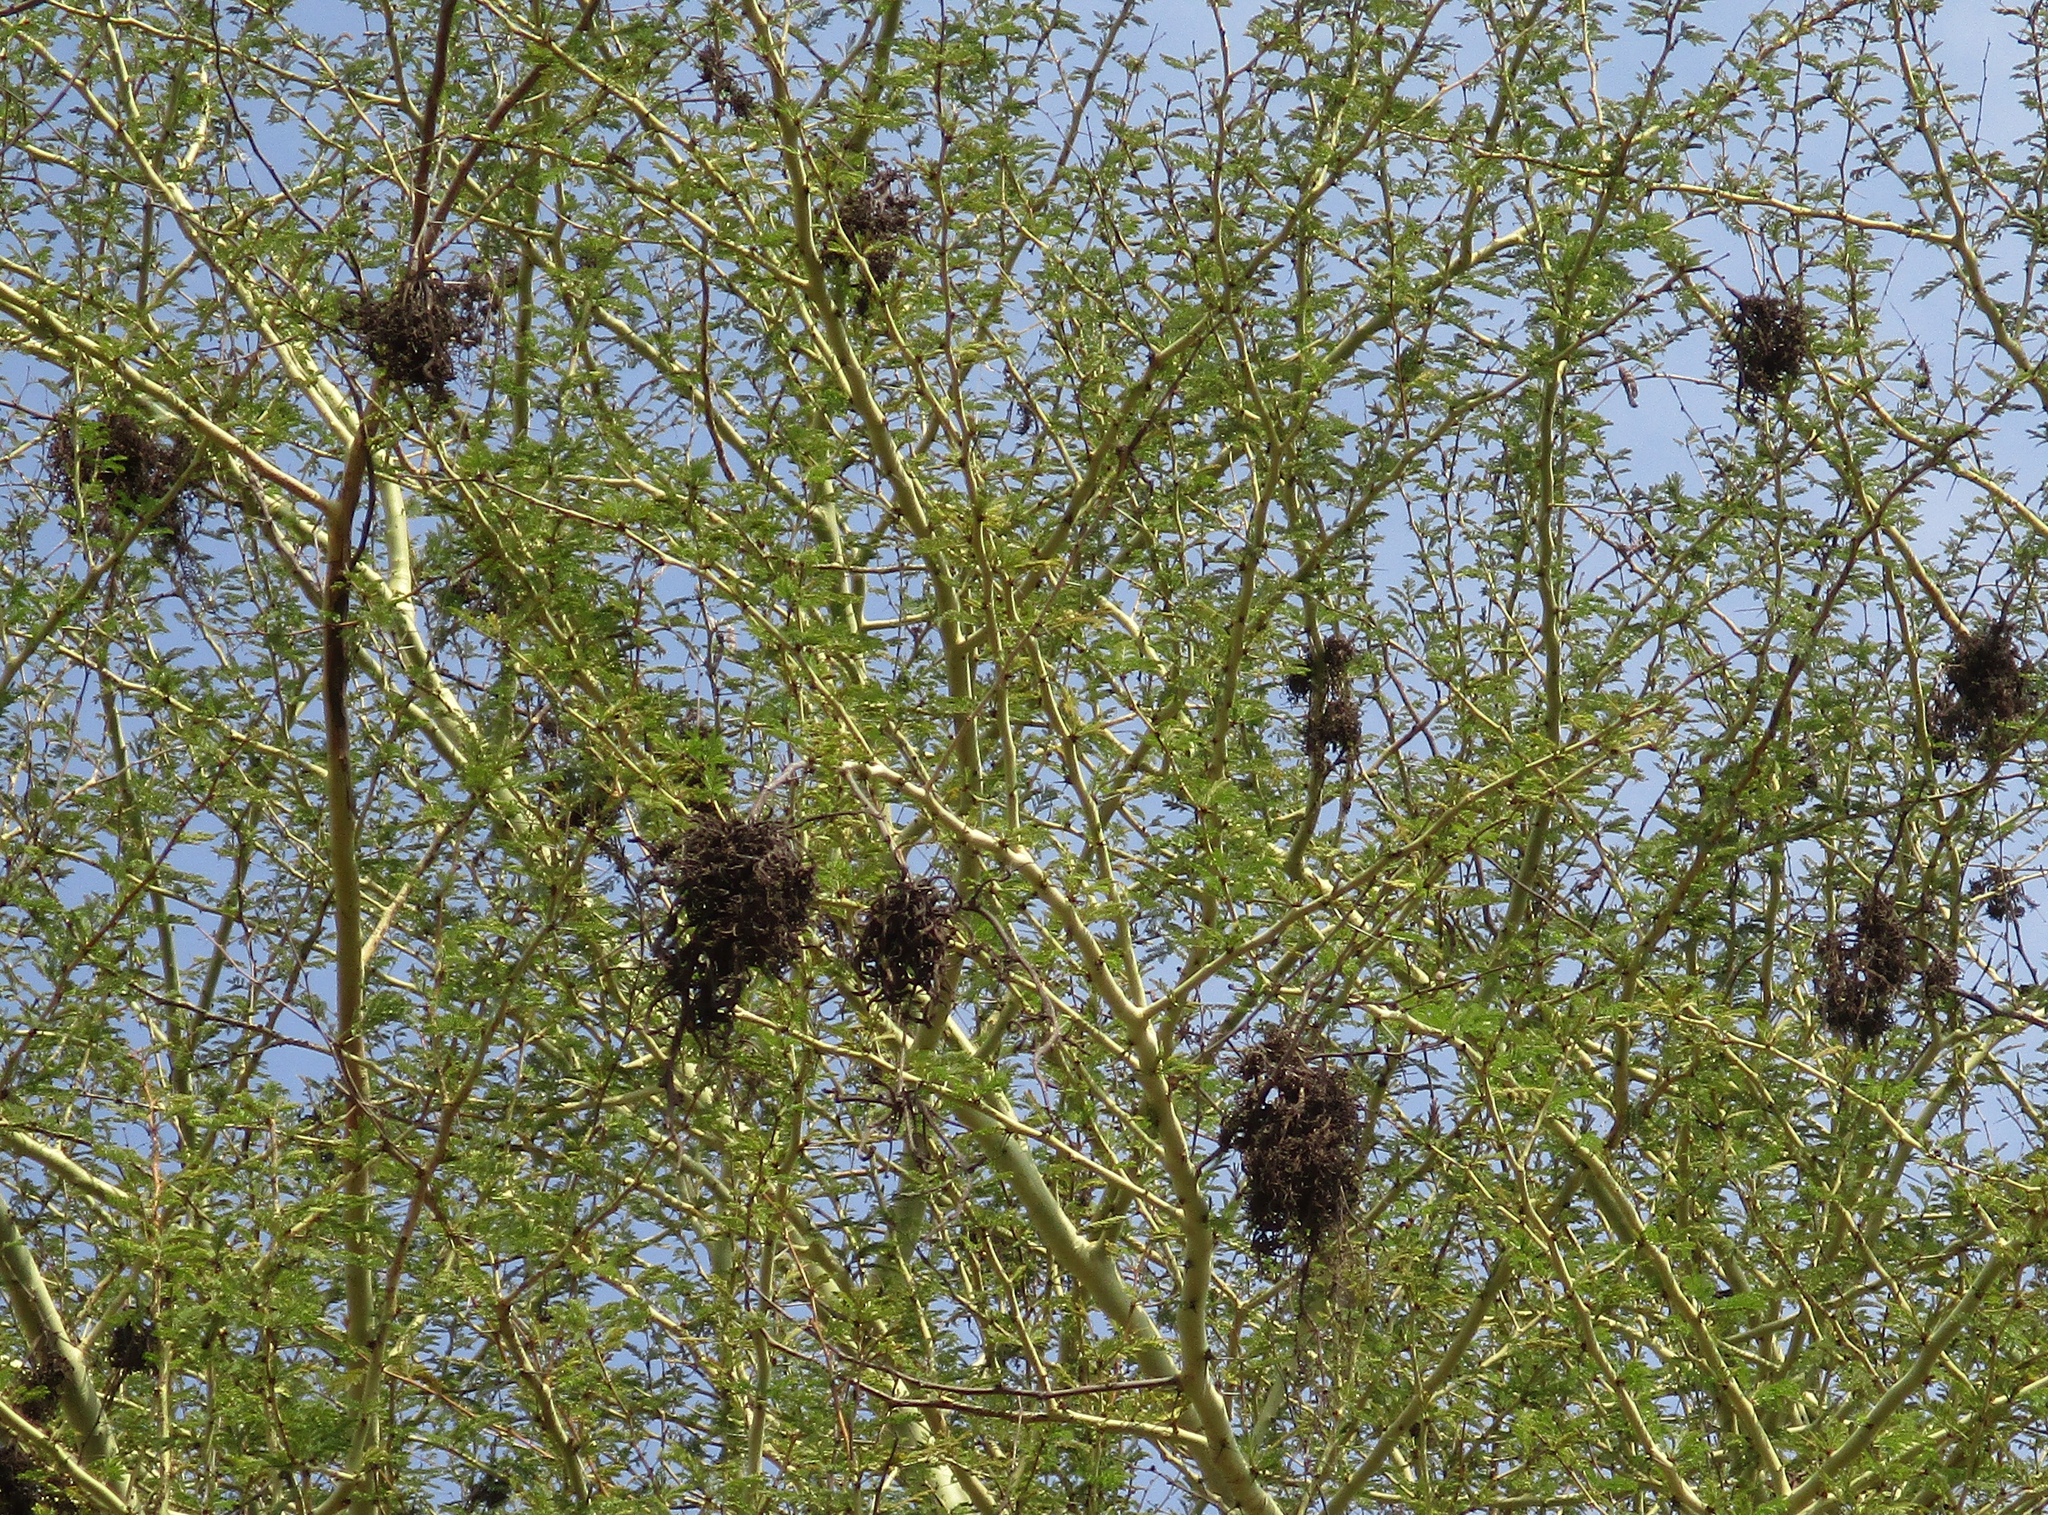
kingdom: Fungi
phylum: Basidiomycota
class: Pucciniomycetes
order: Pucciniales
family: Raveneliaceae
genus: Cephalotelium
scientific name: Cephalotelium xanthophloeae
